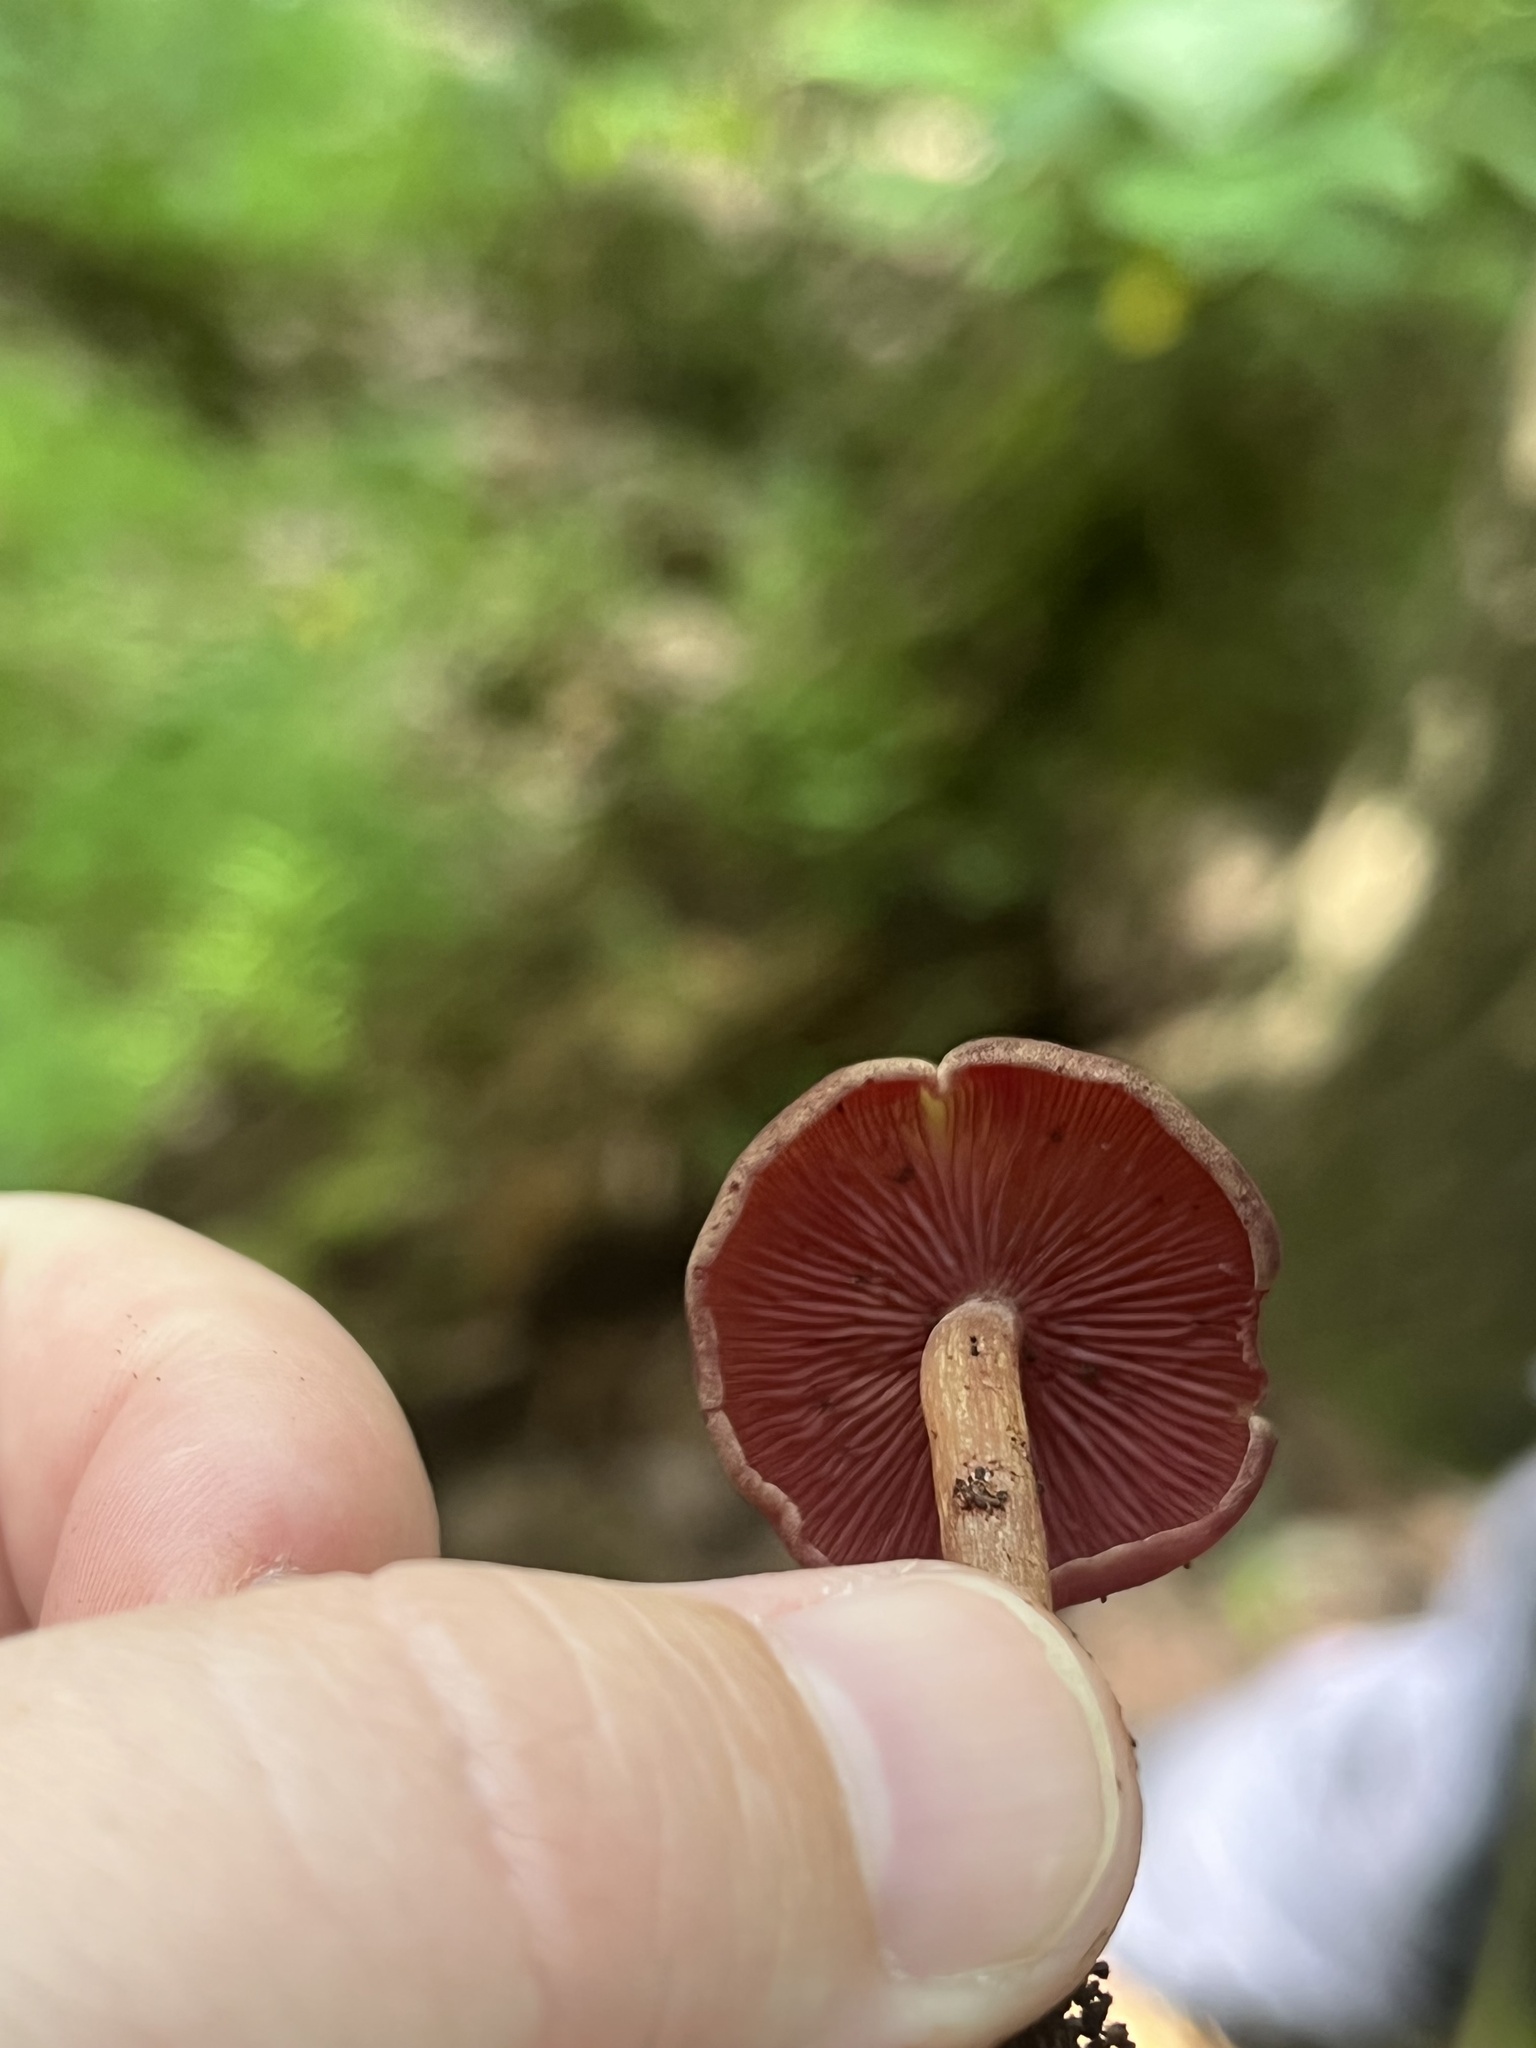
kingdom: Fungi
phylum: Basidiomycota
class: Agaricomycetes
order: Agaricales
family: Callistosporiaceae
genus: Callistosporium
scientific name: Callistosporium purpureomarginatum
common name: Purple-edged lute
